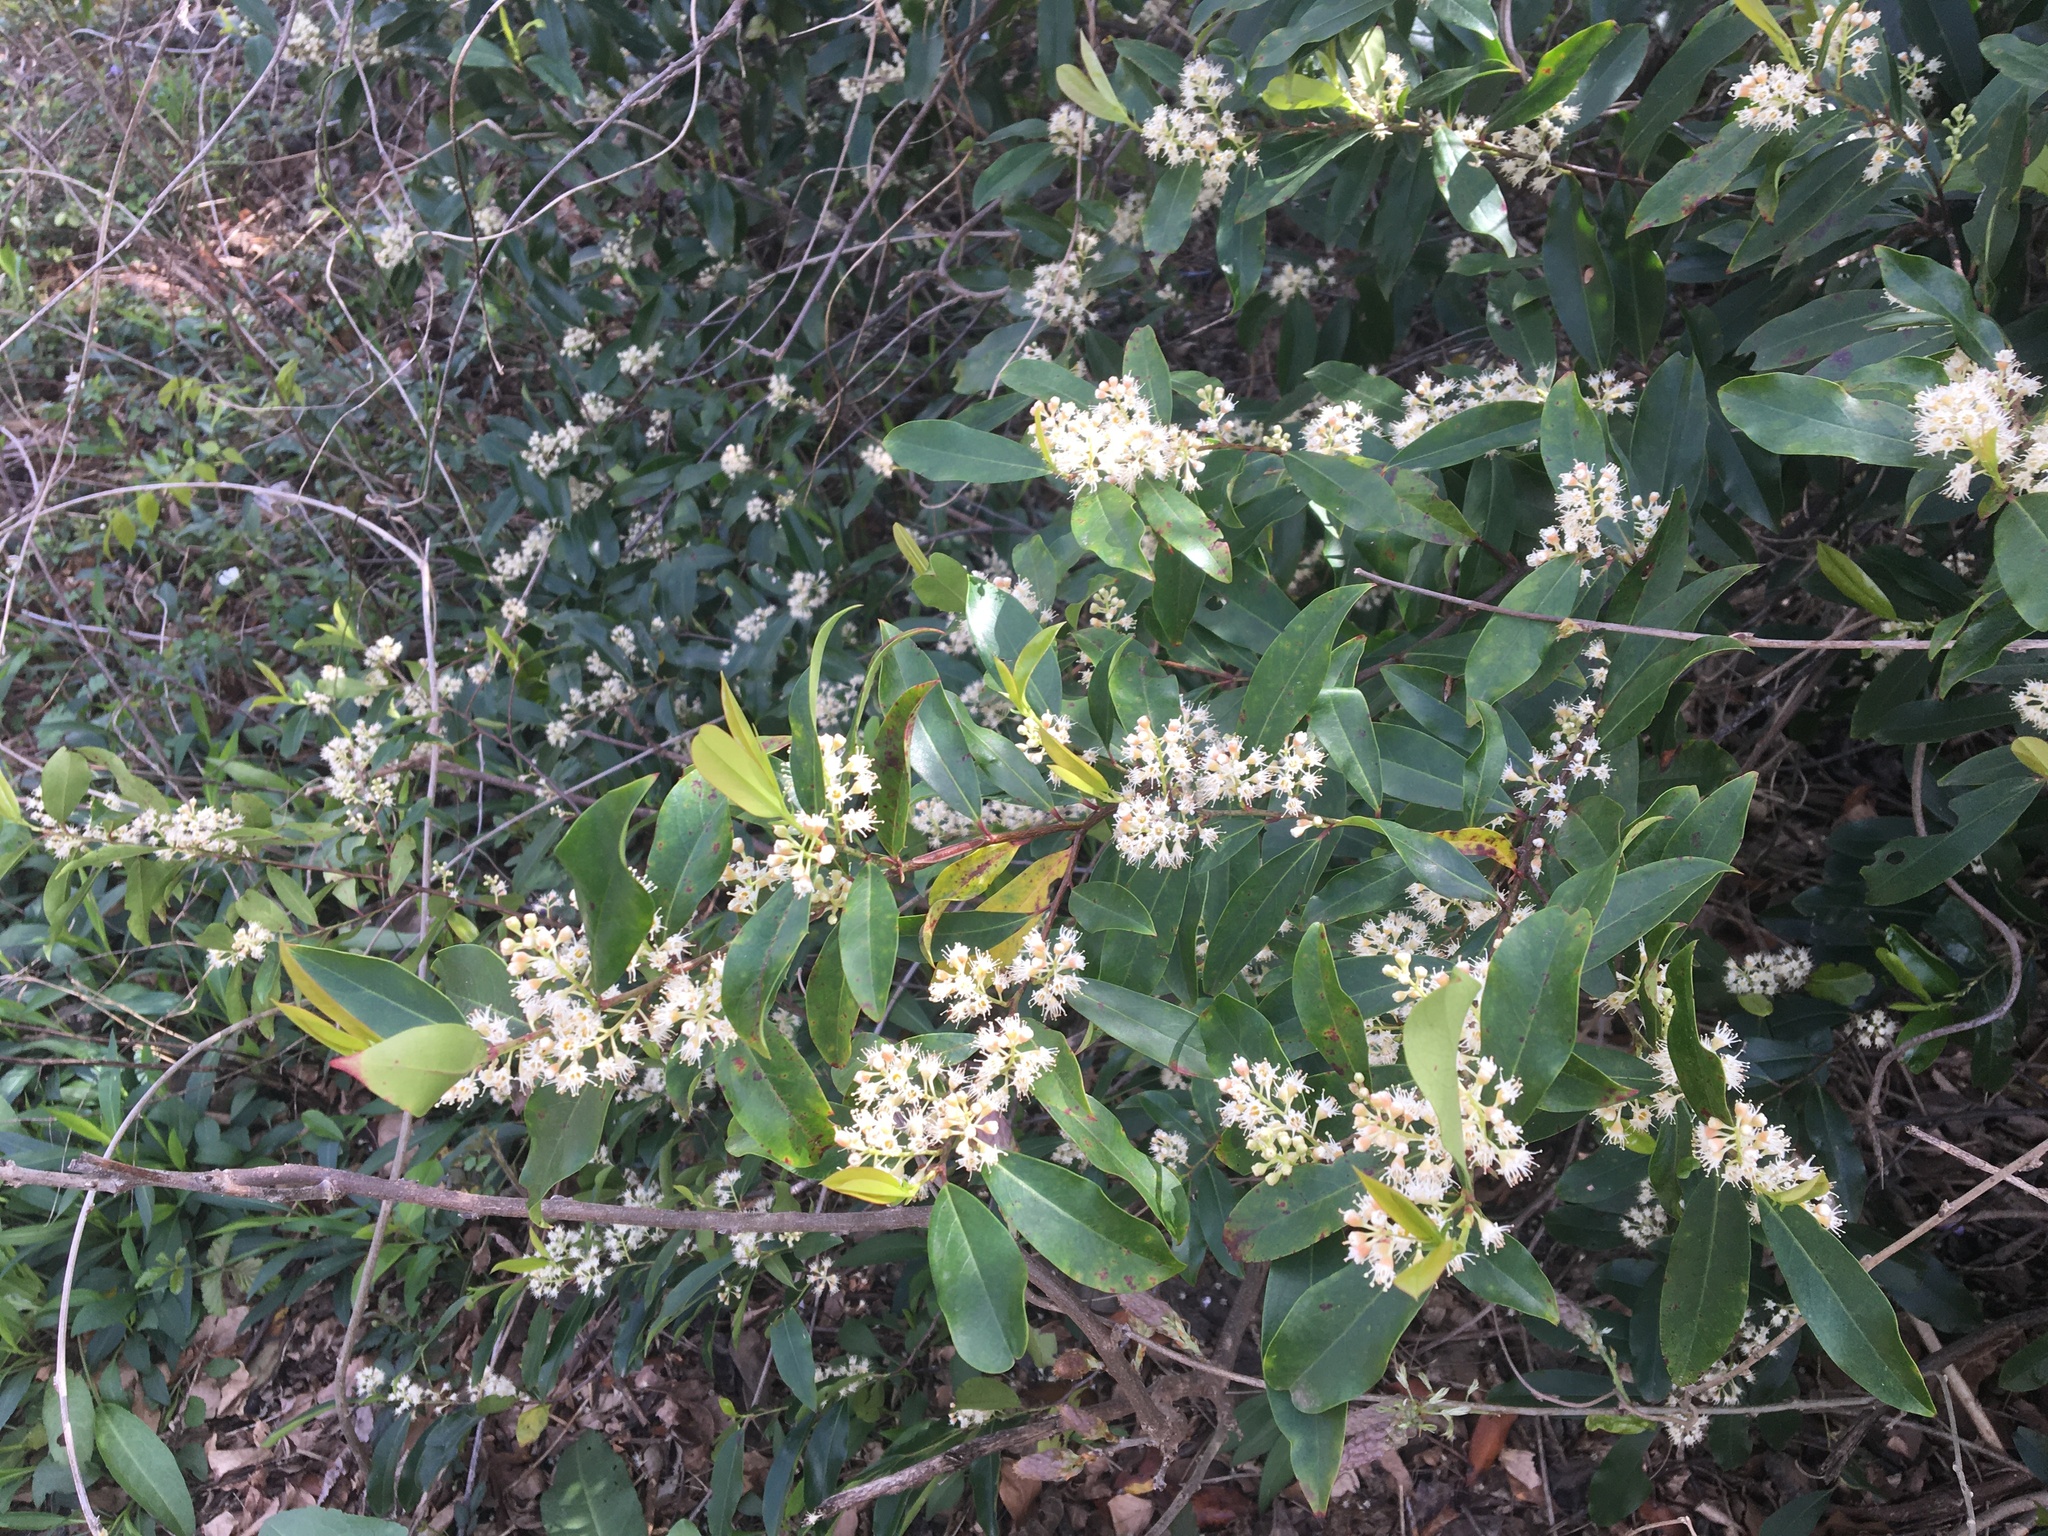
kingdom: Plantae
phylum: Tracheophyta
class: Magnoliopsida
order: Rosales
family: Rosaceae
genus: Prunus
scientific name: Prunus caroliniana
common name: Carolina laurel cherry
